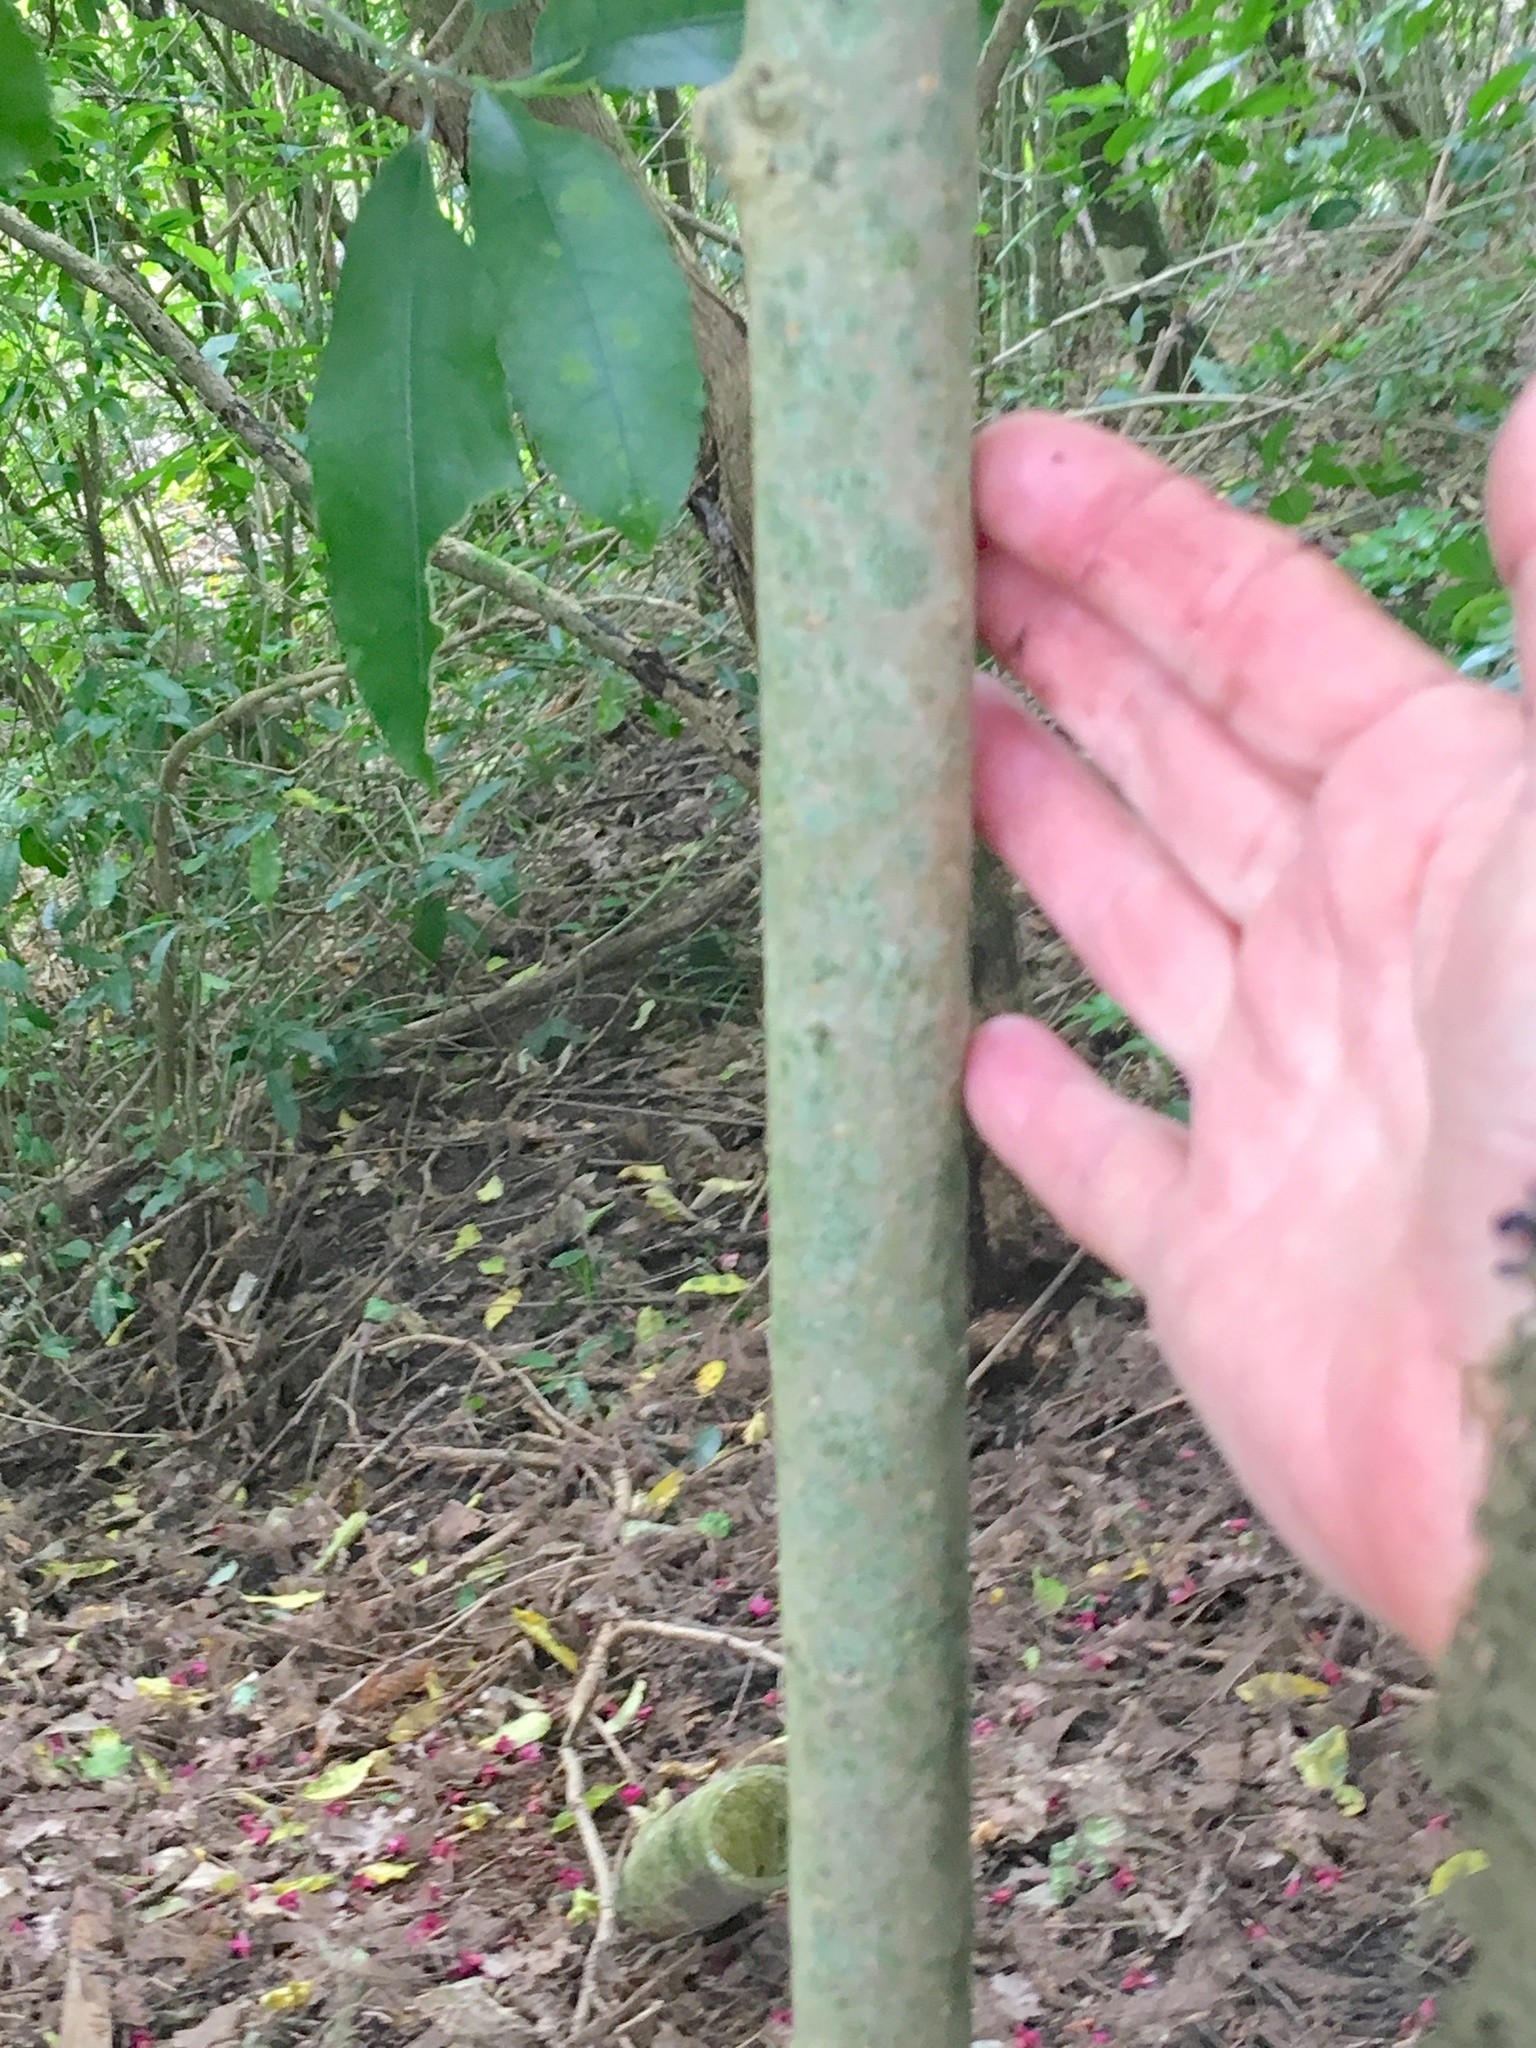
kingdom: Plantae
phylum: Tracheophyta
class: Magnoliopsida
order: Lamiales
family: Oleaceae
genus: Ligustrum
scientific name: Ligustrum lucidum
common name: Glossy privet
